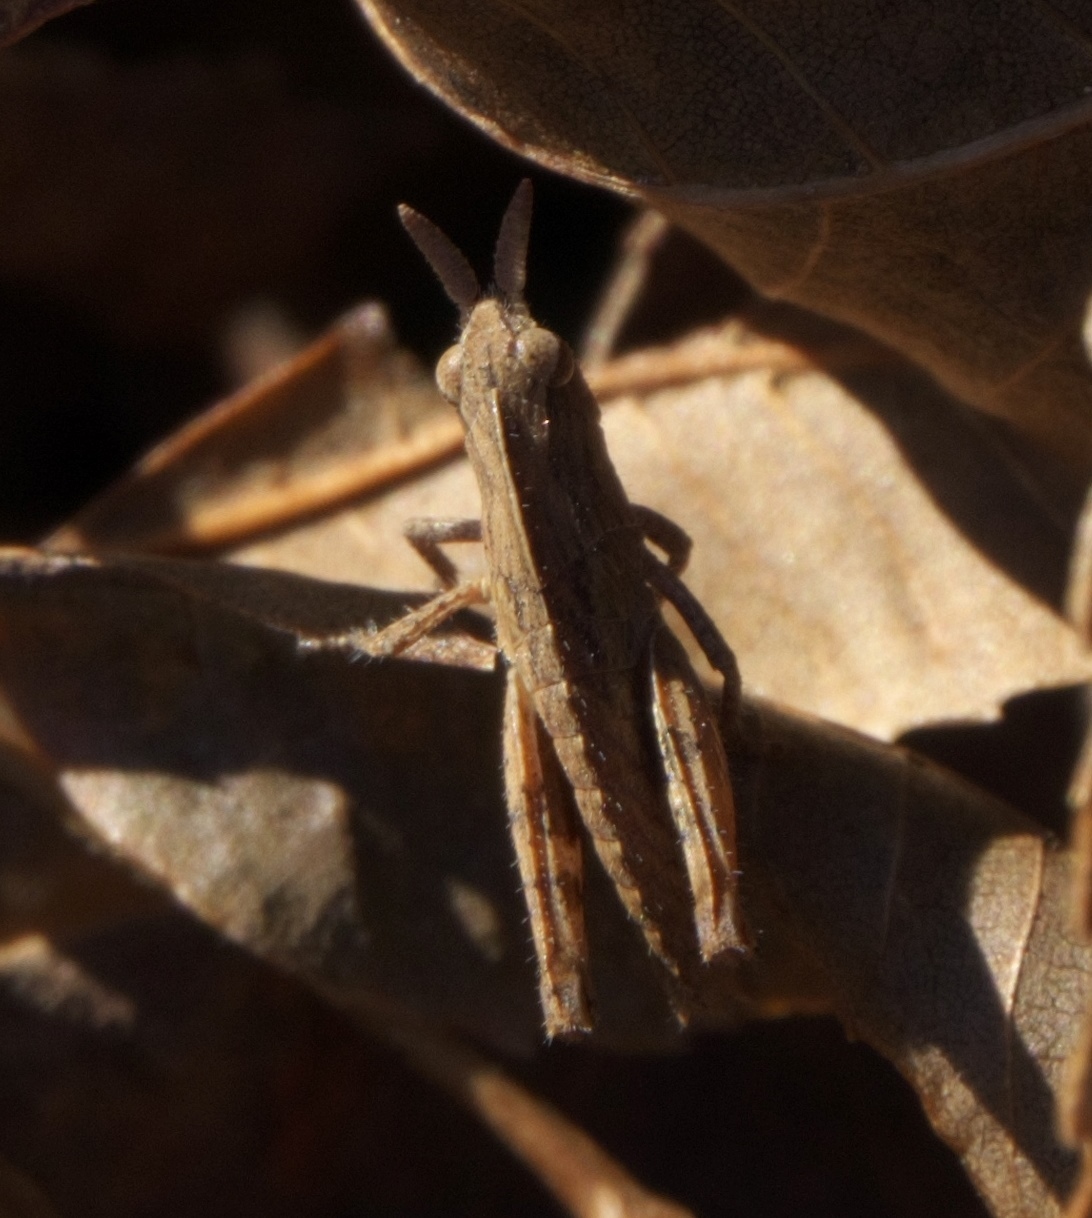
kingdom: Animalia
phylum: Arthropoda
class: Insecta
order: Orthoptera
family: Acrididae
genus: Chortophaga
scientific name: Chortophaga viridifasciata
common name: Green-striped grasshopper
